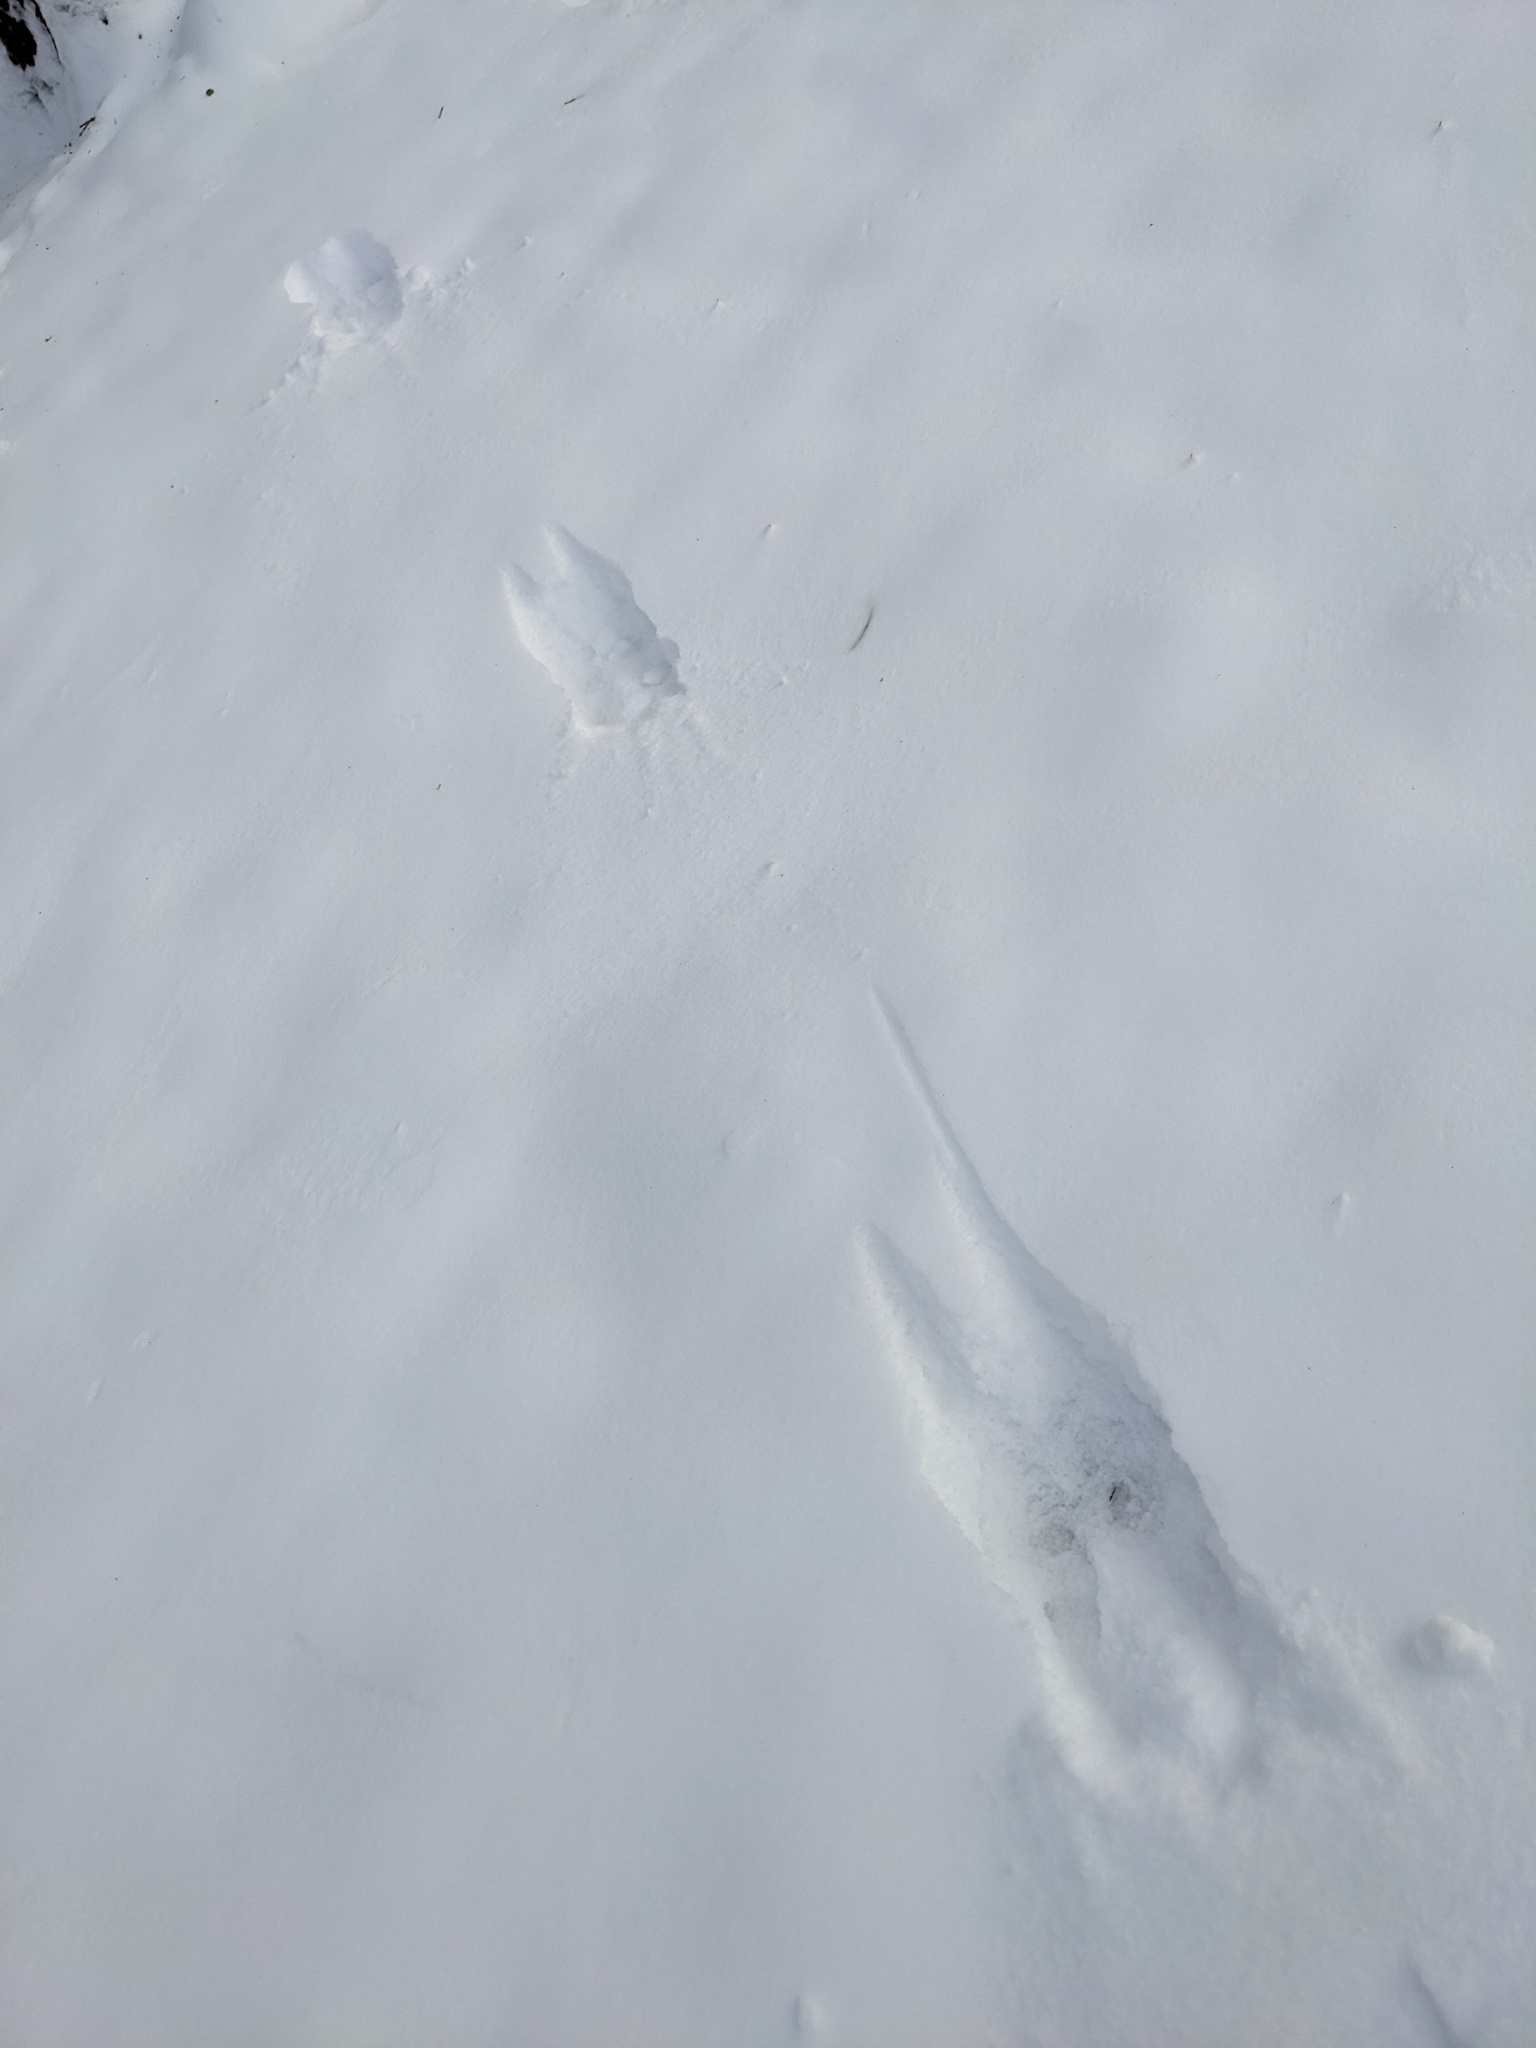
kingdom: Animalia
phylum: Chordata
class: Mammalia
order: Artiodactyla
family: Cervidae
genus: Odocoileus
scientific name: Odocoileus virginianus
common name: White-tailed deer
